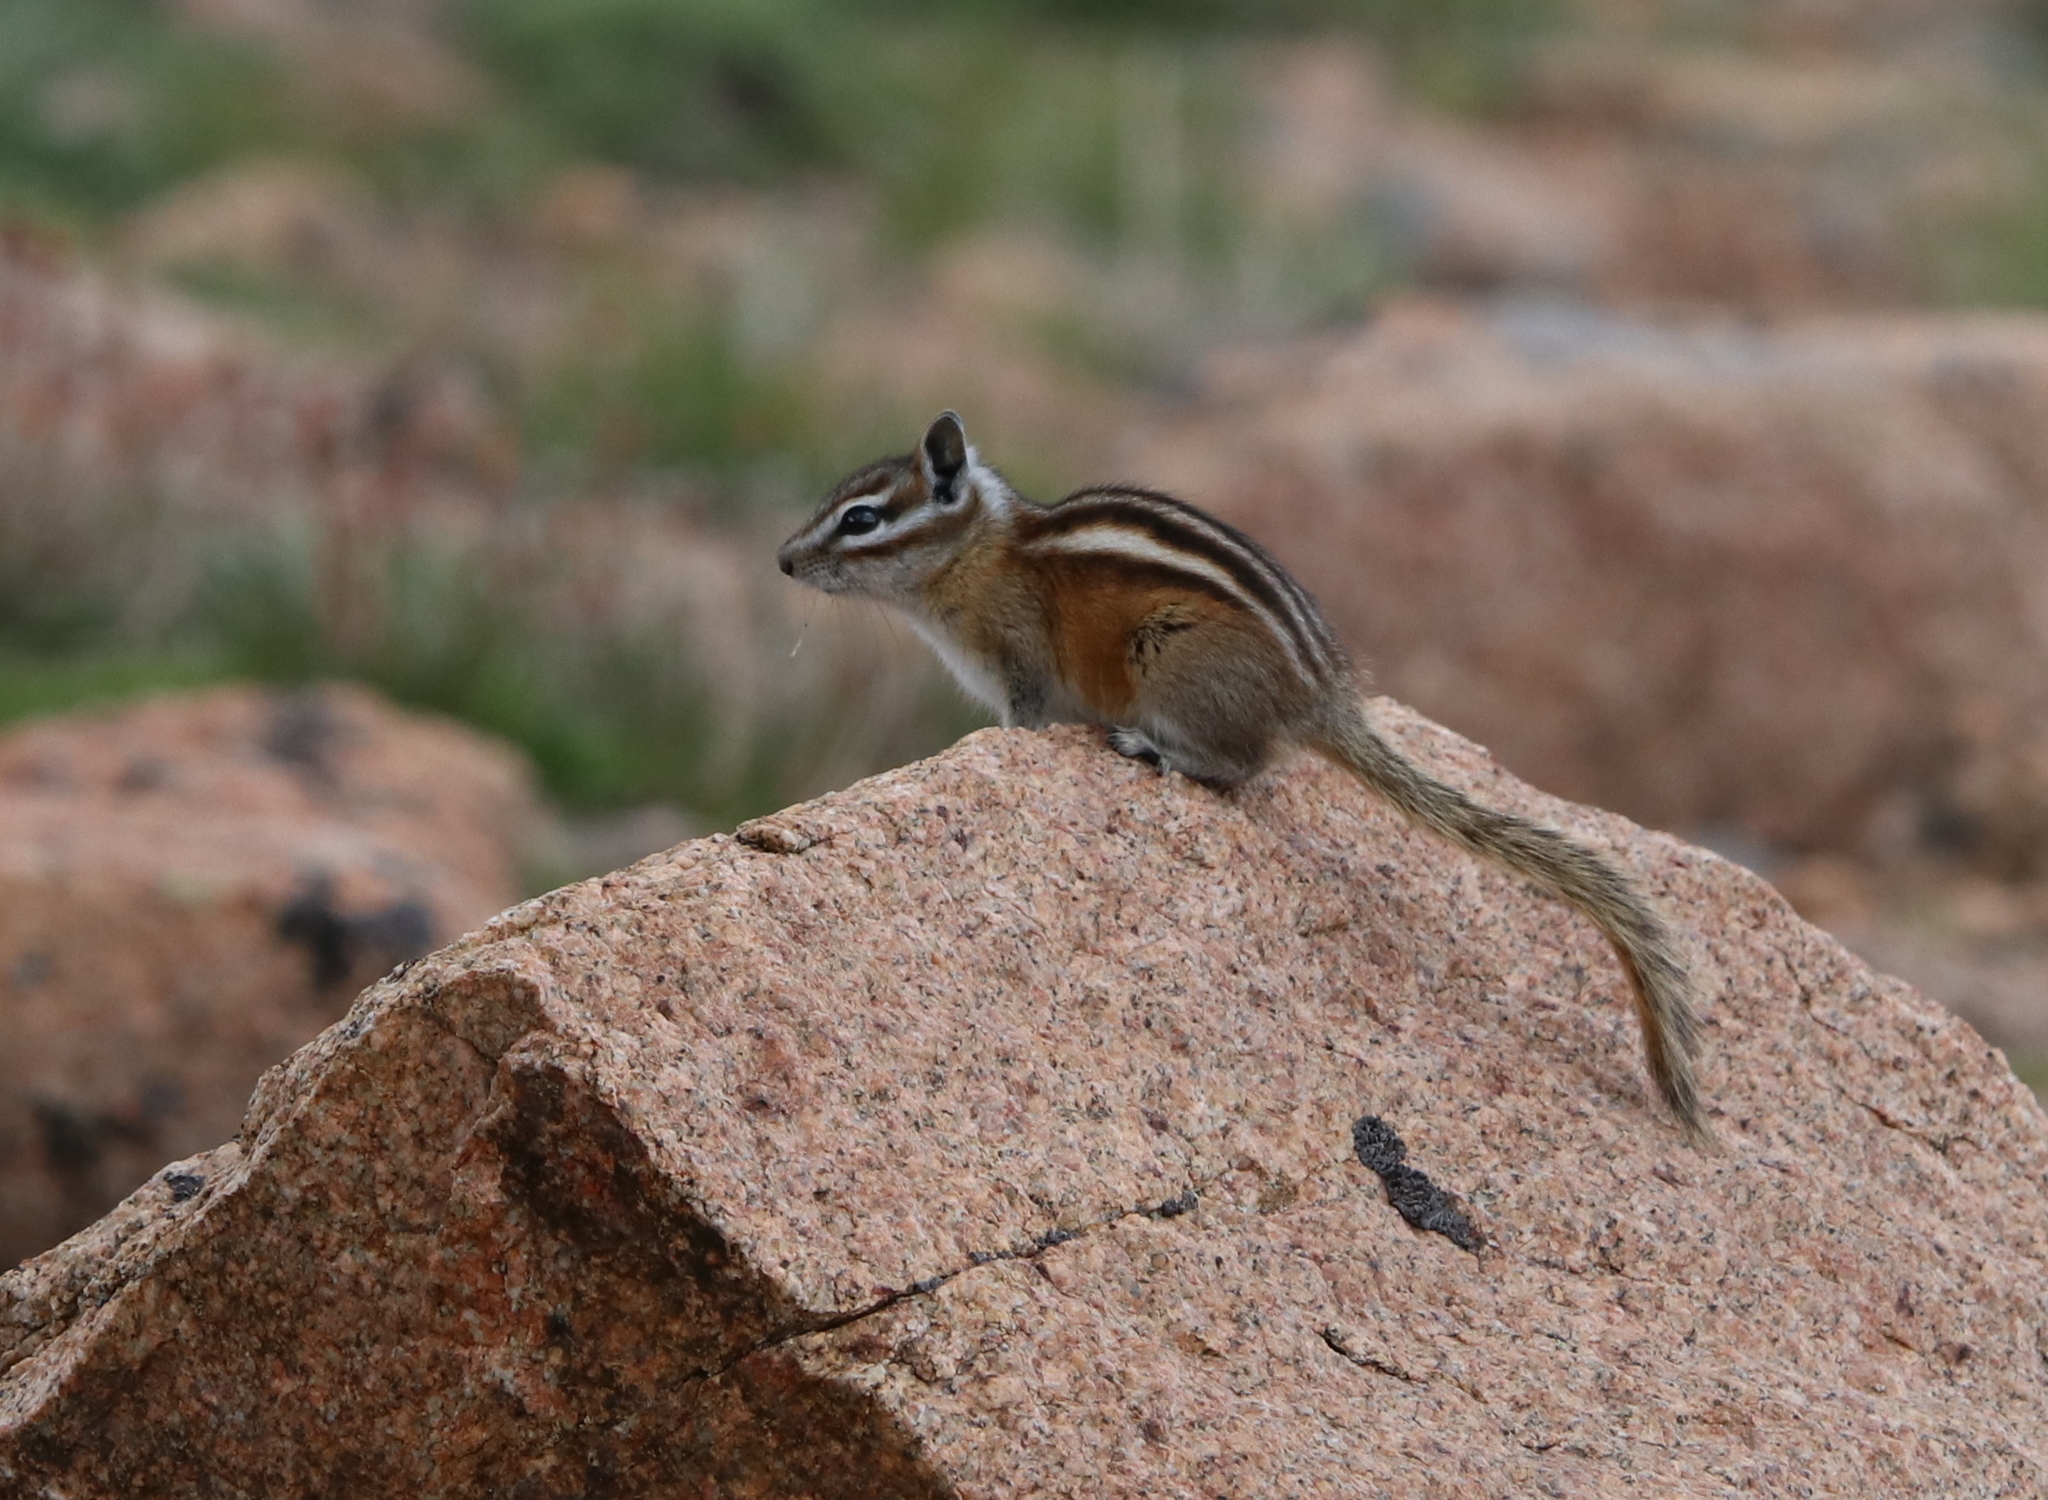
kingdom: Animalia
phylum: Chordata
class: Mammalia
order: Rodentia
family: Sciuridae
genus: Tamias
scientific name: Tamias minimus
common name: Least chipmunk
